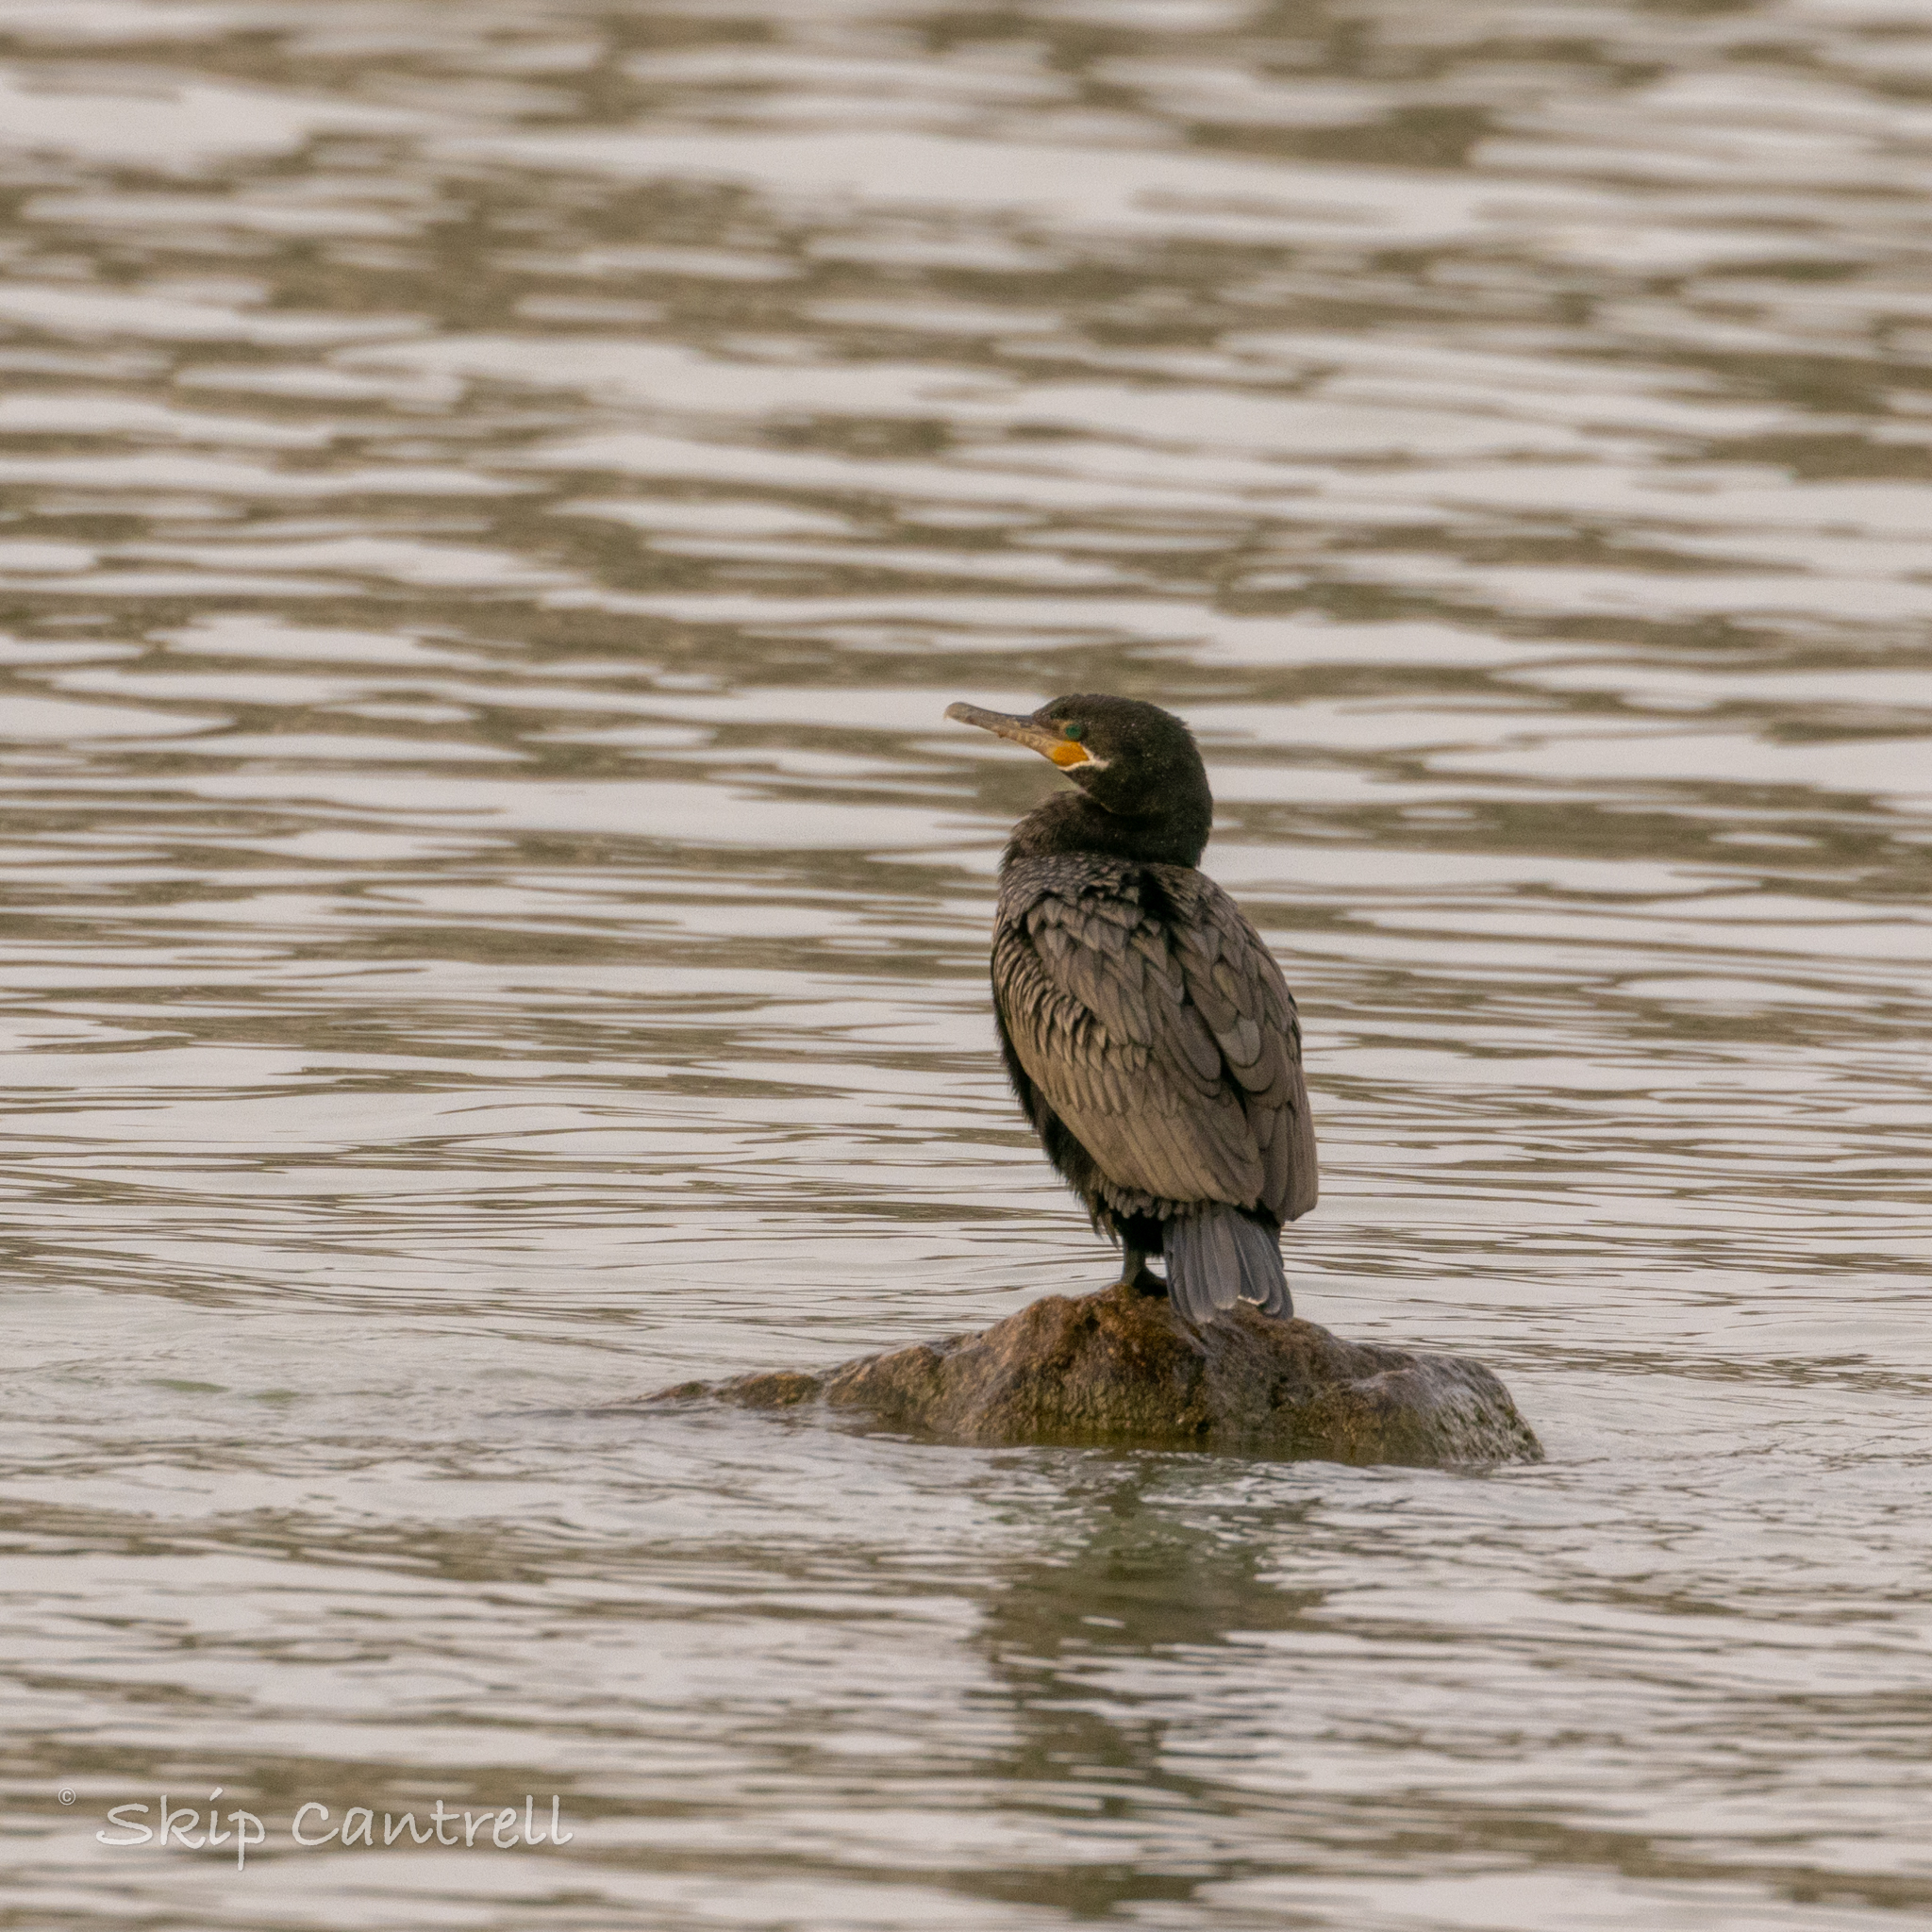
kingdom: Animalia
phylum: Chordata
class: Aves
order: Suliformes
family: Phalacrocoracidae
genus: Phalacrocorax
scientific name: Phalacrocorax brasilianus
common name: Neotropic cormorant
